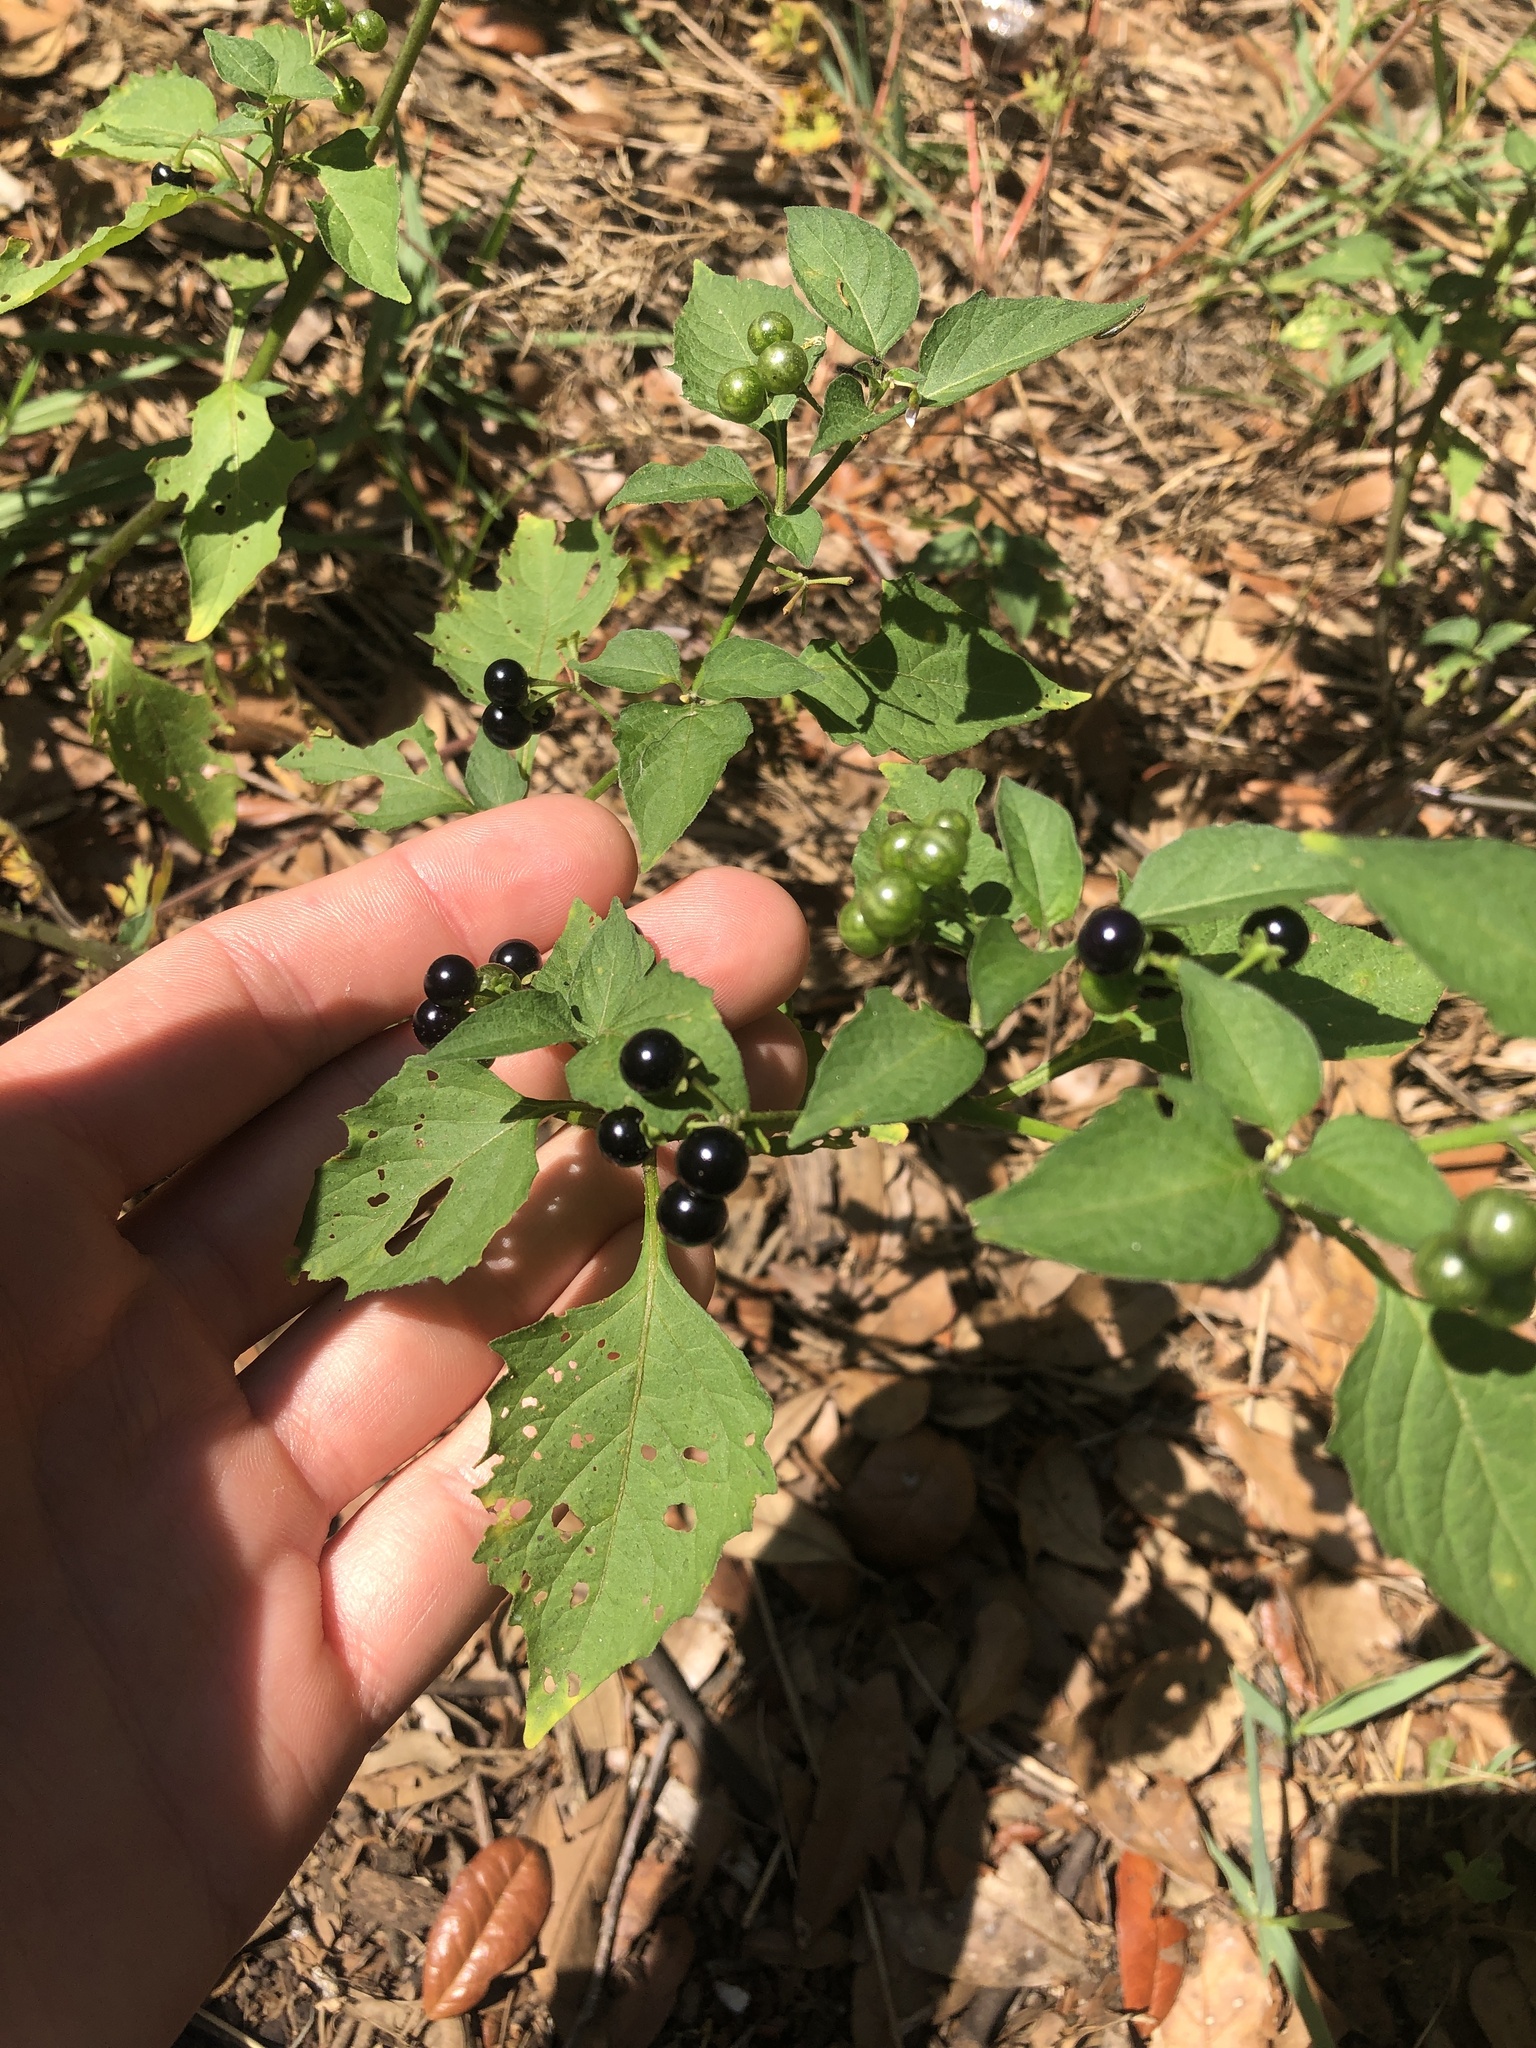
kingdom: Plantae
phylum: Tracheophyta
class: Magnoliopsida
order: Solanales
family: Solanaceae
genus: Solanum
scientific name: Solanum americanum
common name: American black nightshade
